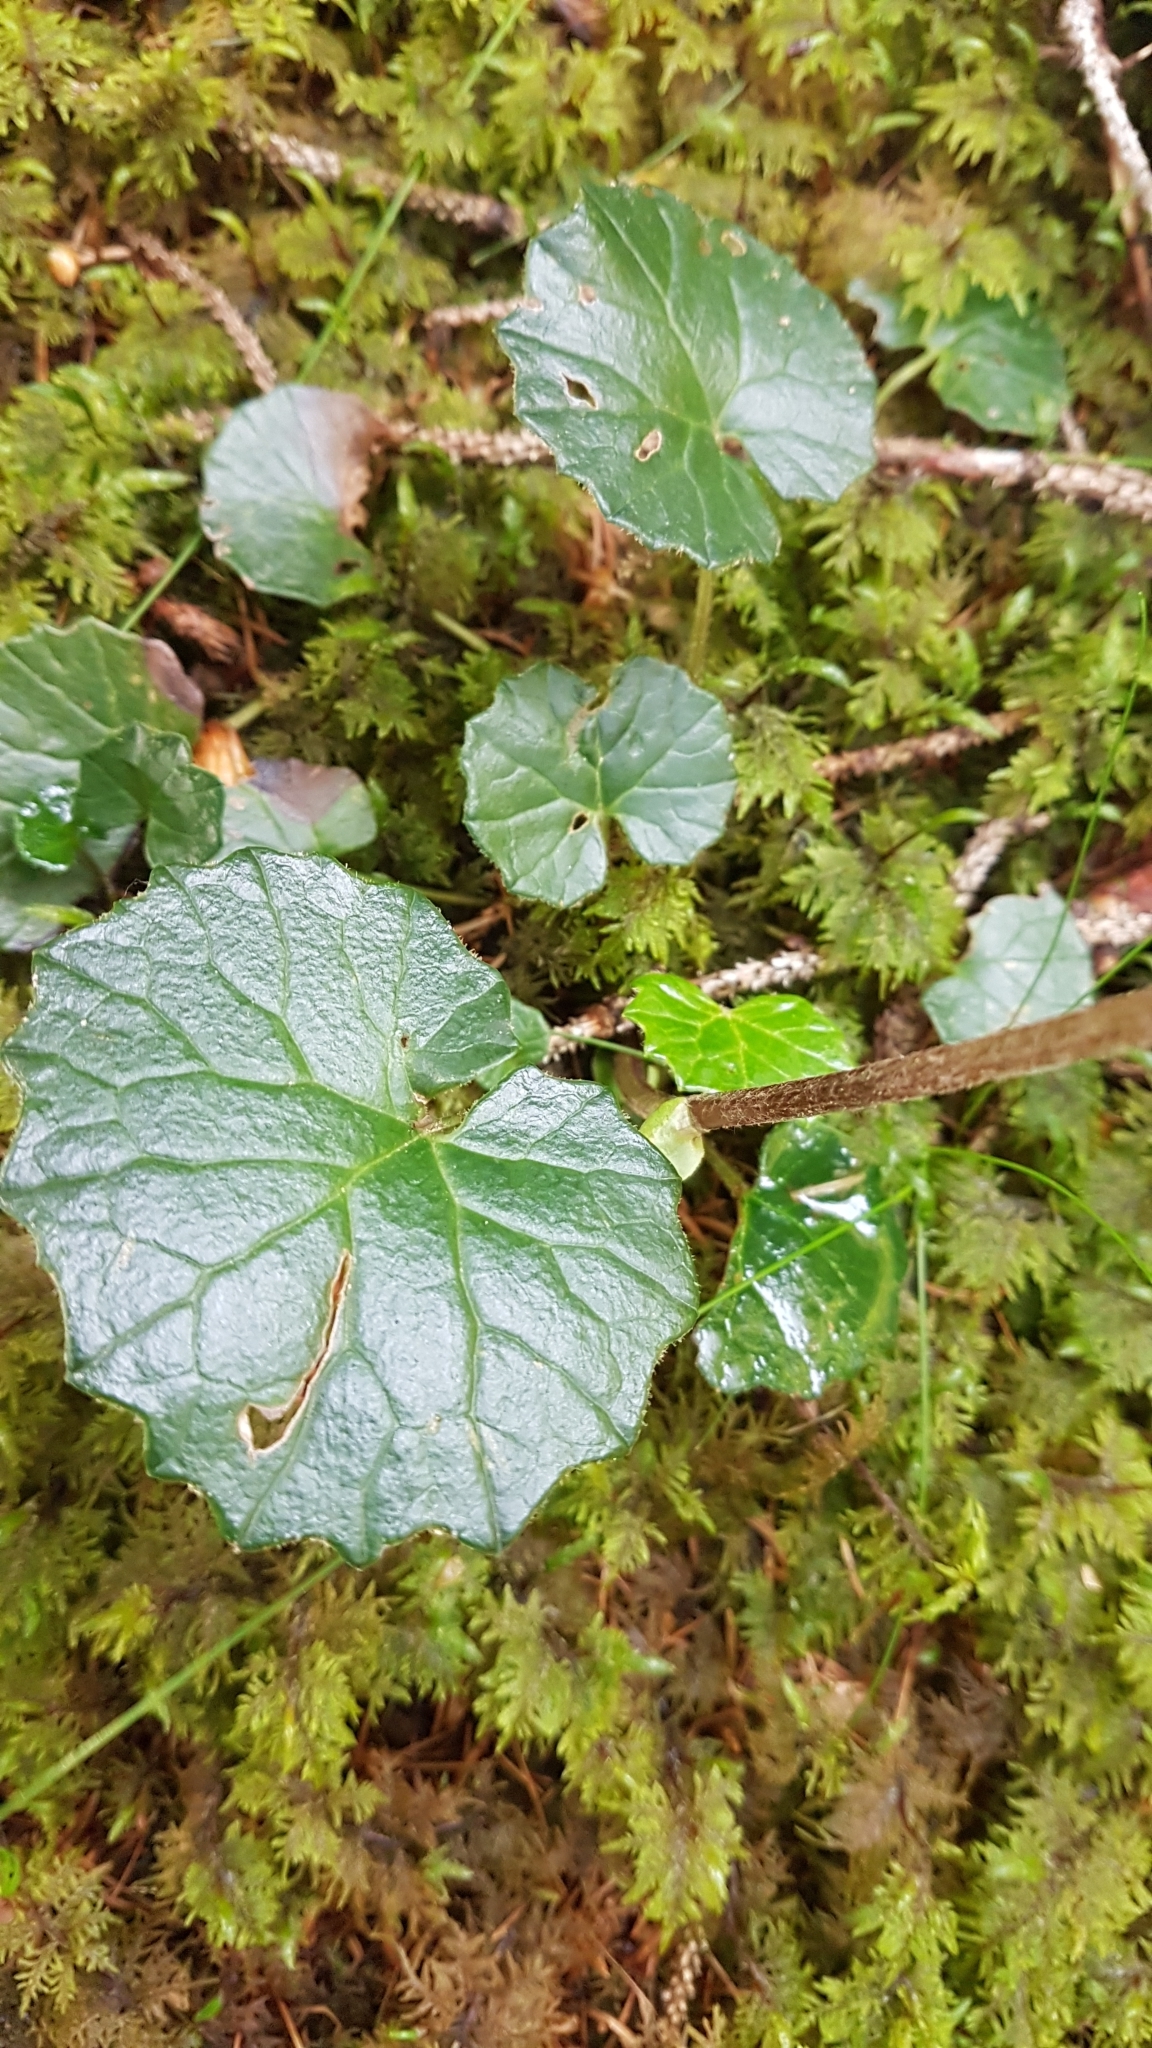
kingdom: Plantae
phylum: Tracheophyta
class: Magnoliopsida
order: Asterales
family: Asteraceae
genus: Homogyne
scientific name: Homogyne alpina
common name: Purple colt's-foot
